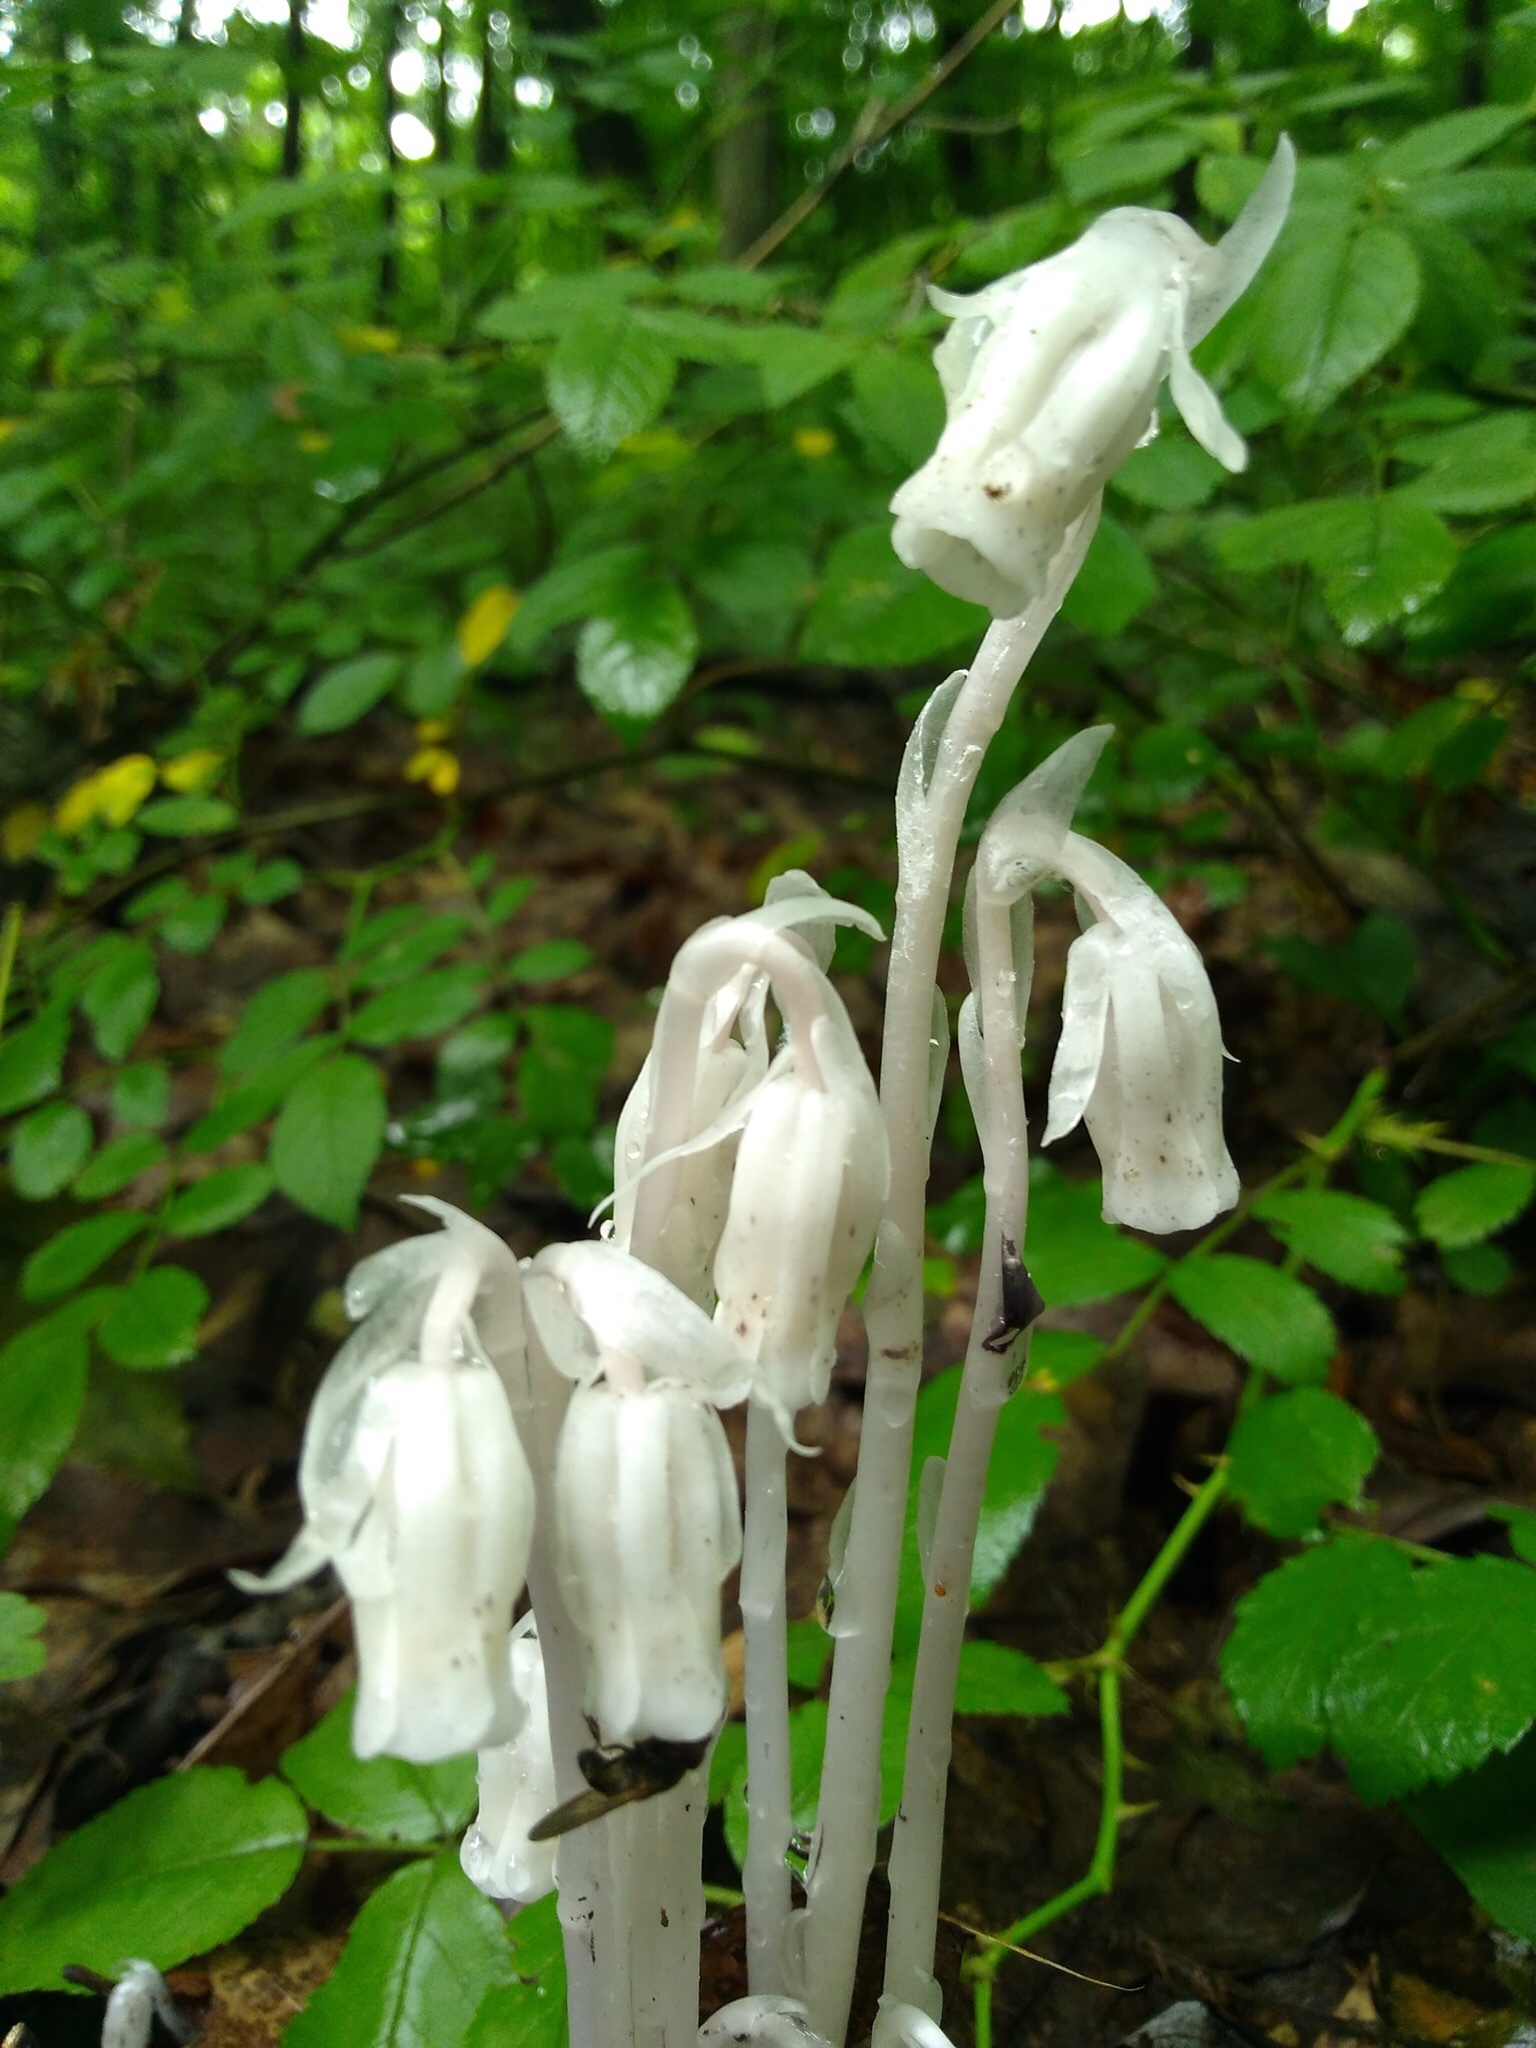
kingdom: Plantae
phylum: Tracheophyta
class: Magnoliopsida
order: Ericales
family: Ericaceae
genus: Monotropa
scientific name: Monotropa uniflora
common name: Convulsion root
